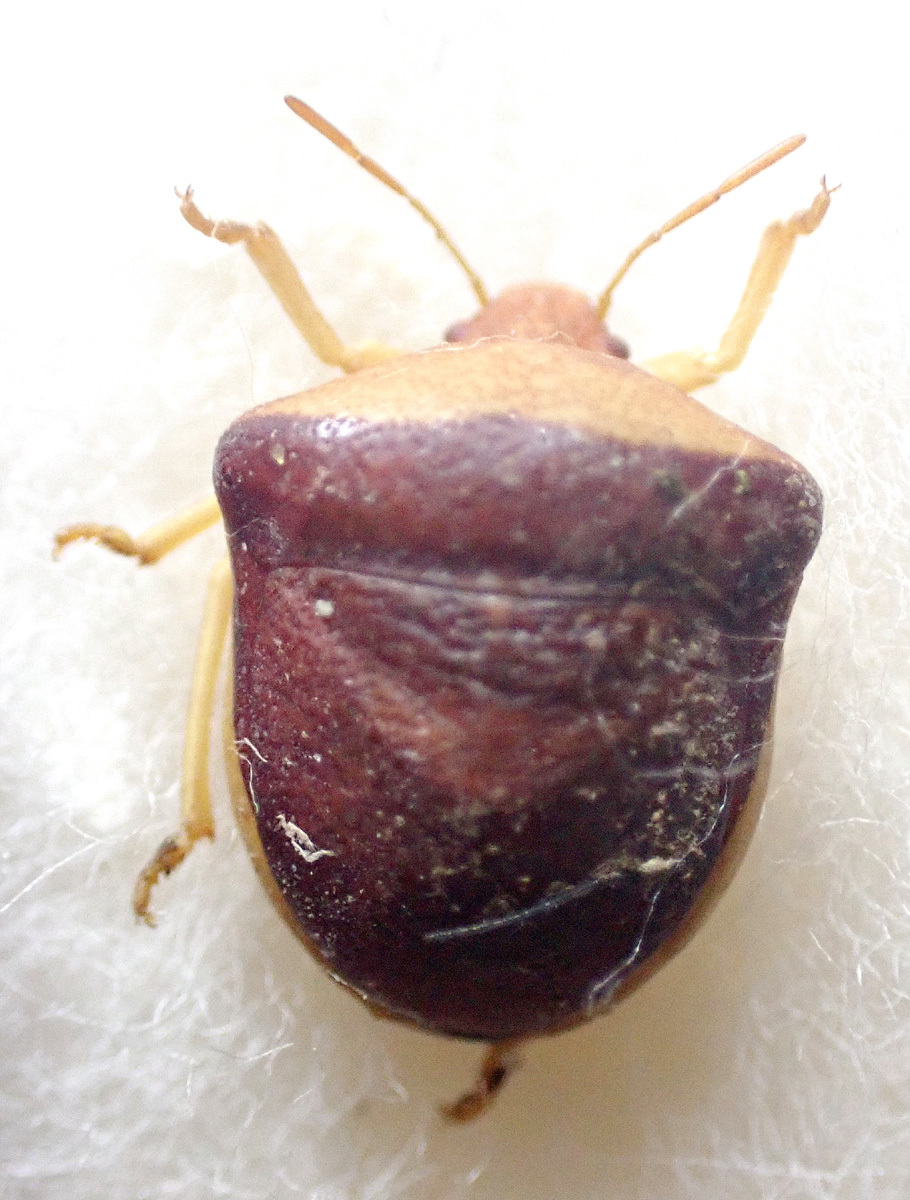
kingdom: Animalia
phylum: Arthropoda
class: Insecta
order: Hemiptera
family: Pentatomidae
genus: Ventocoris
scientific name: Ventocoris rusticus
